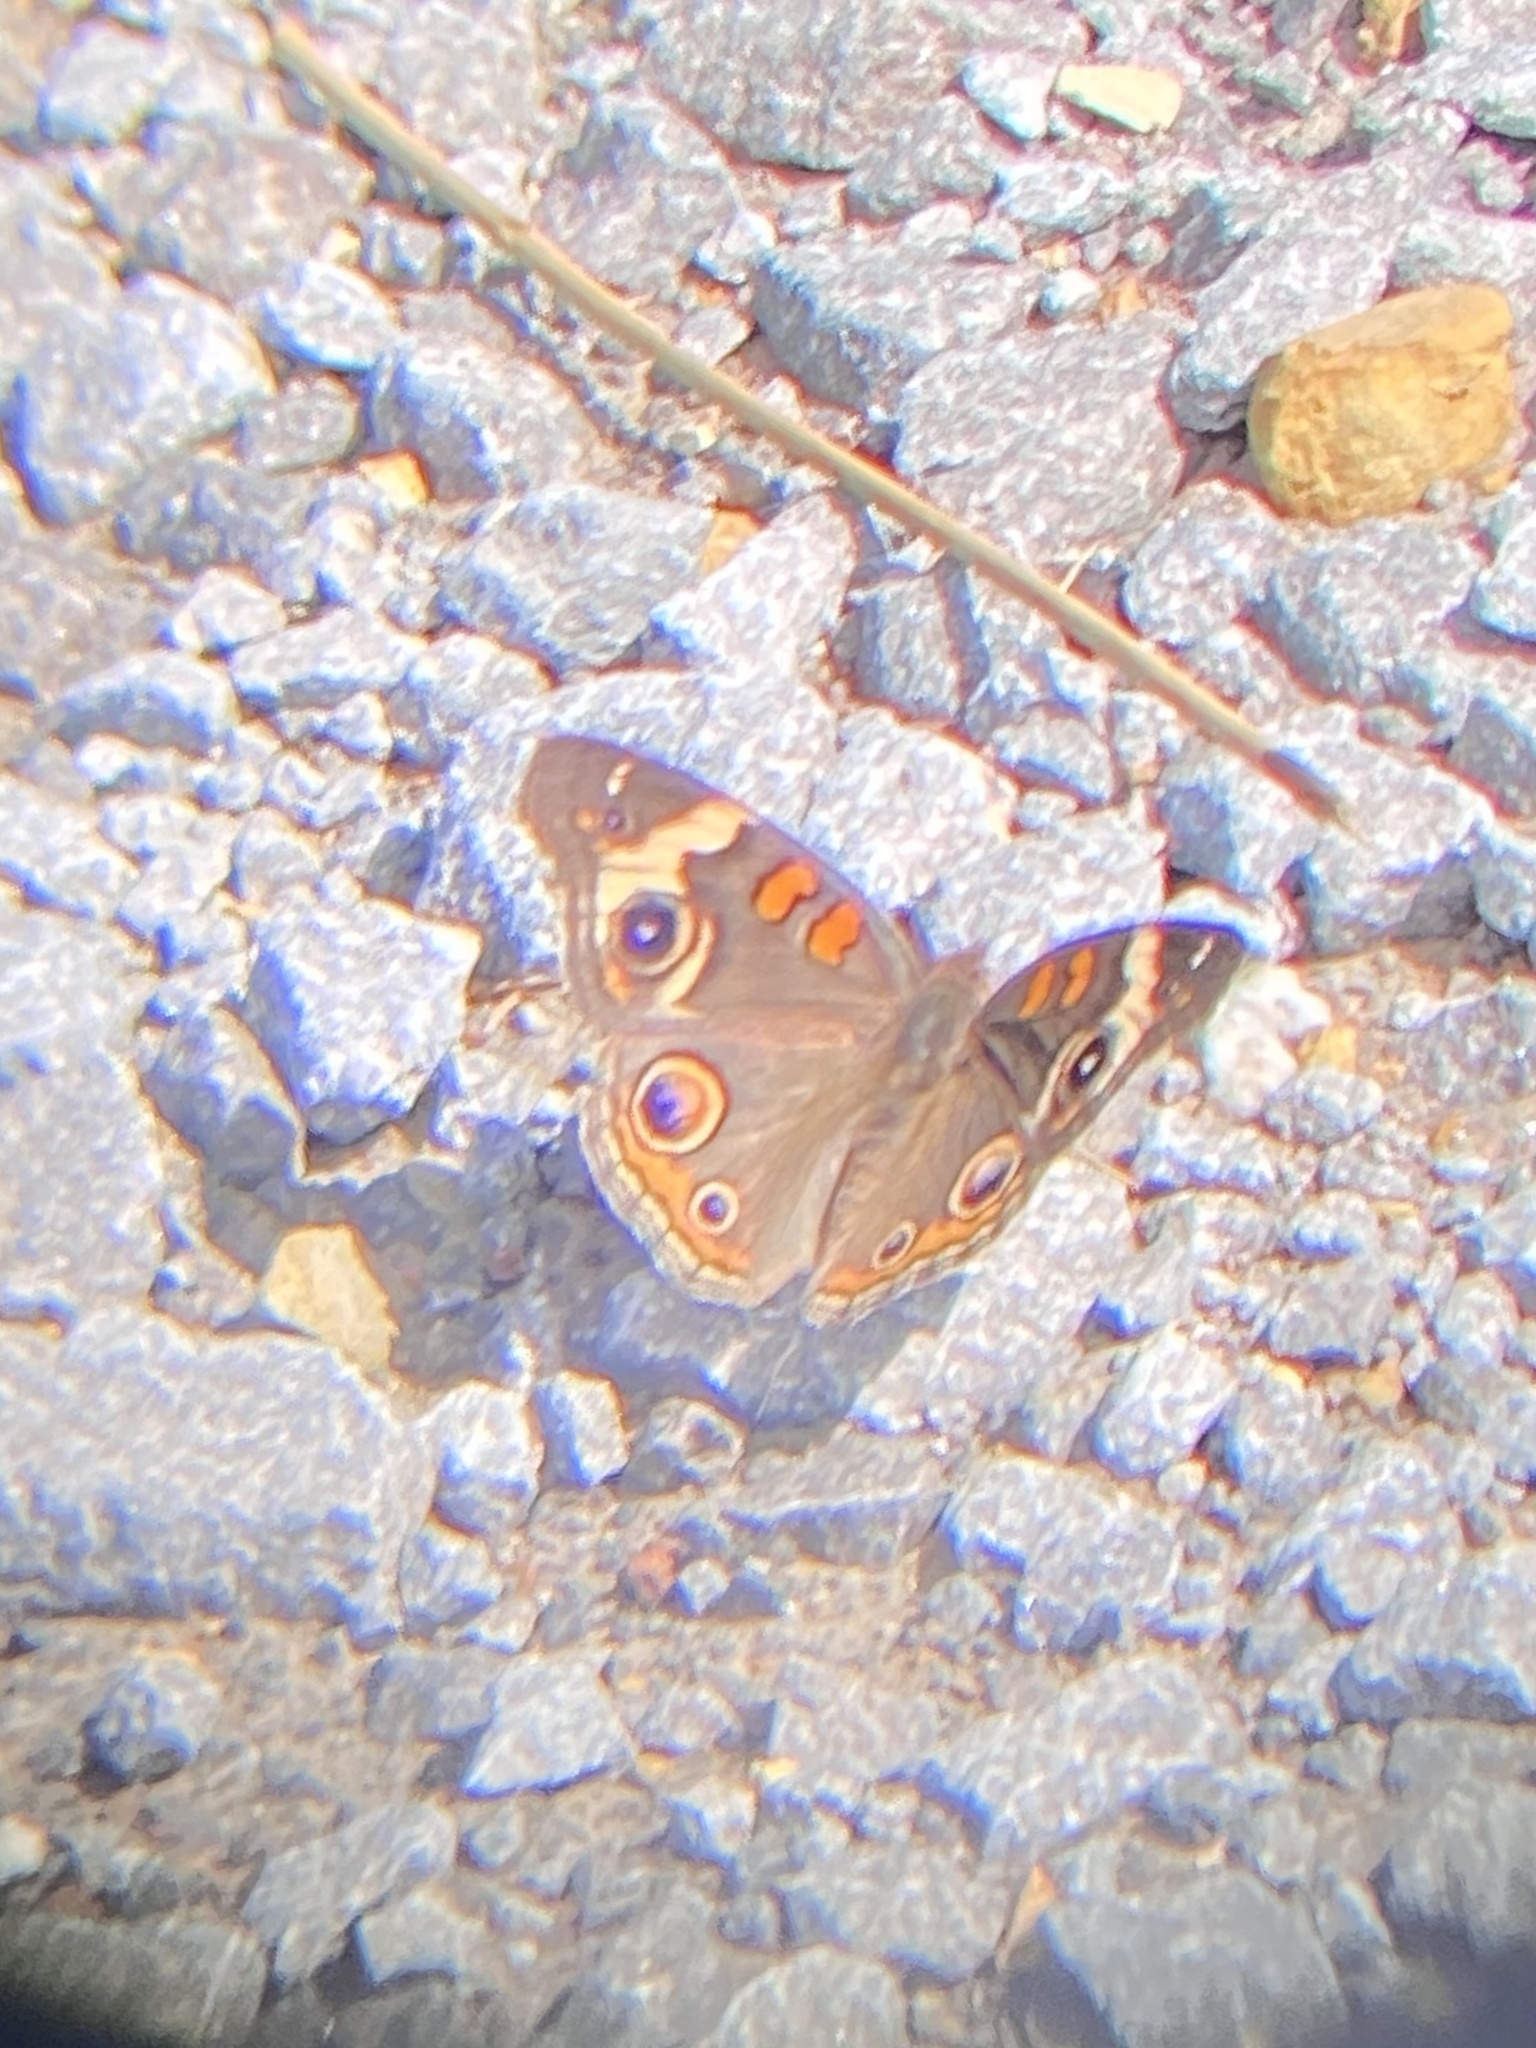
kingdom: Animalia
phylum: Arthropoda
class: Insecta
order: Lepidoptera
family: Nymphalidae
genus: Junonia
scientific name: Junonia coenia
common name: Common buckeye
